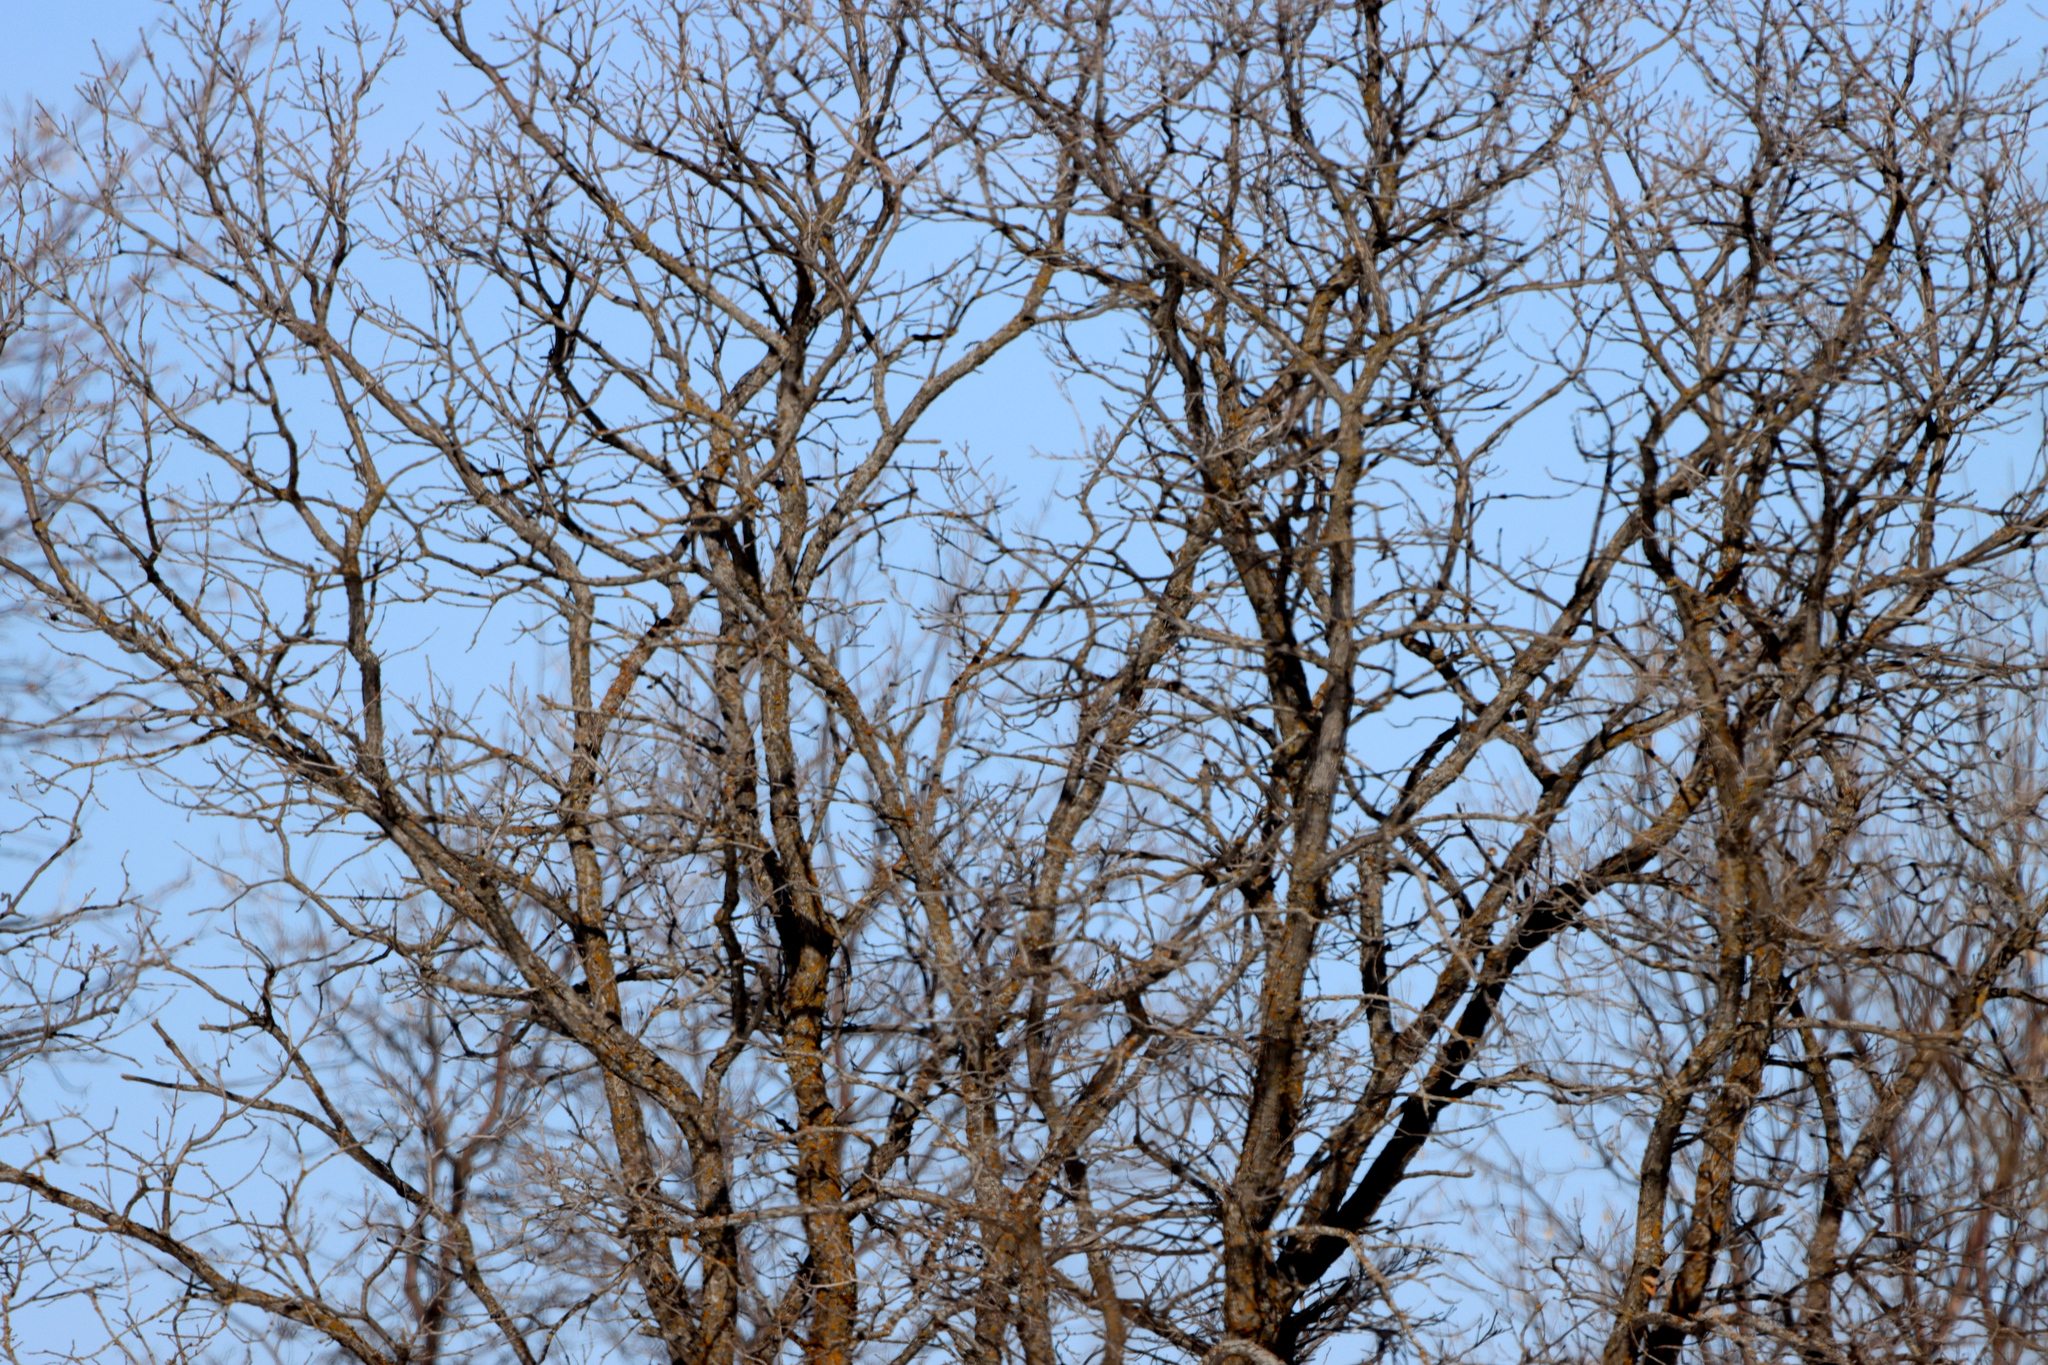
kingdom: Plantae
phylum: Tracheophyta
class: Magnoliopsida
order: Fagales
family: Fagaceae
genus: Quercus
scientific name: Quercus macrocarpa
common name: Bur oak
